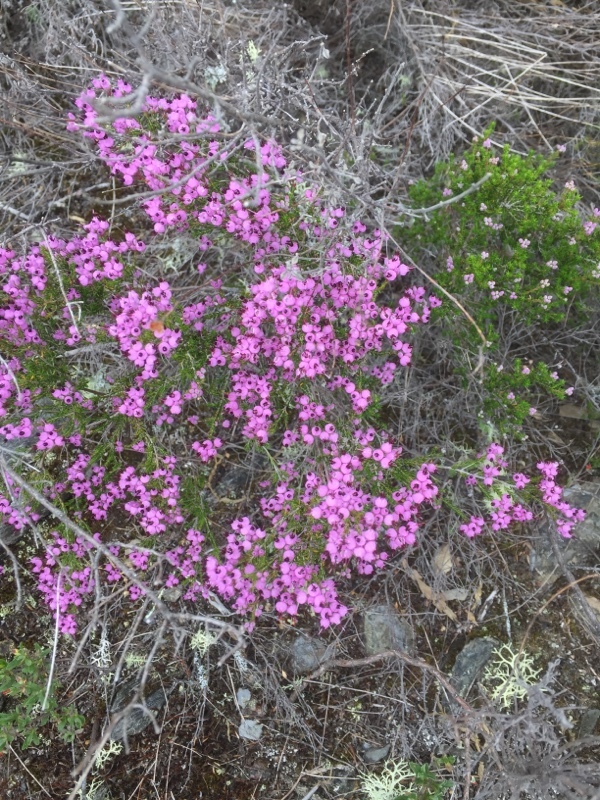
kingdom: Plantae
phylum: Tracheophyta
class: Magnoliopsida
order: Ericales
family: Ericaceae
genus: Erica
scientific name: Erica umbellata
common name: Dwarf spanish heath
